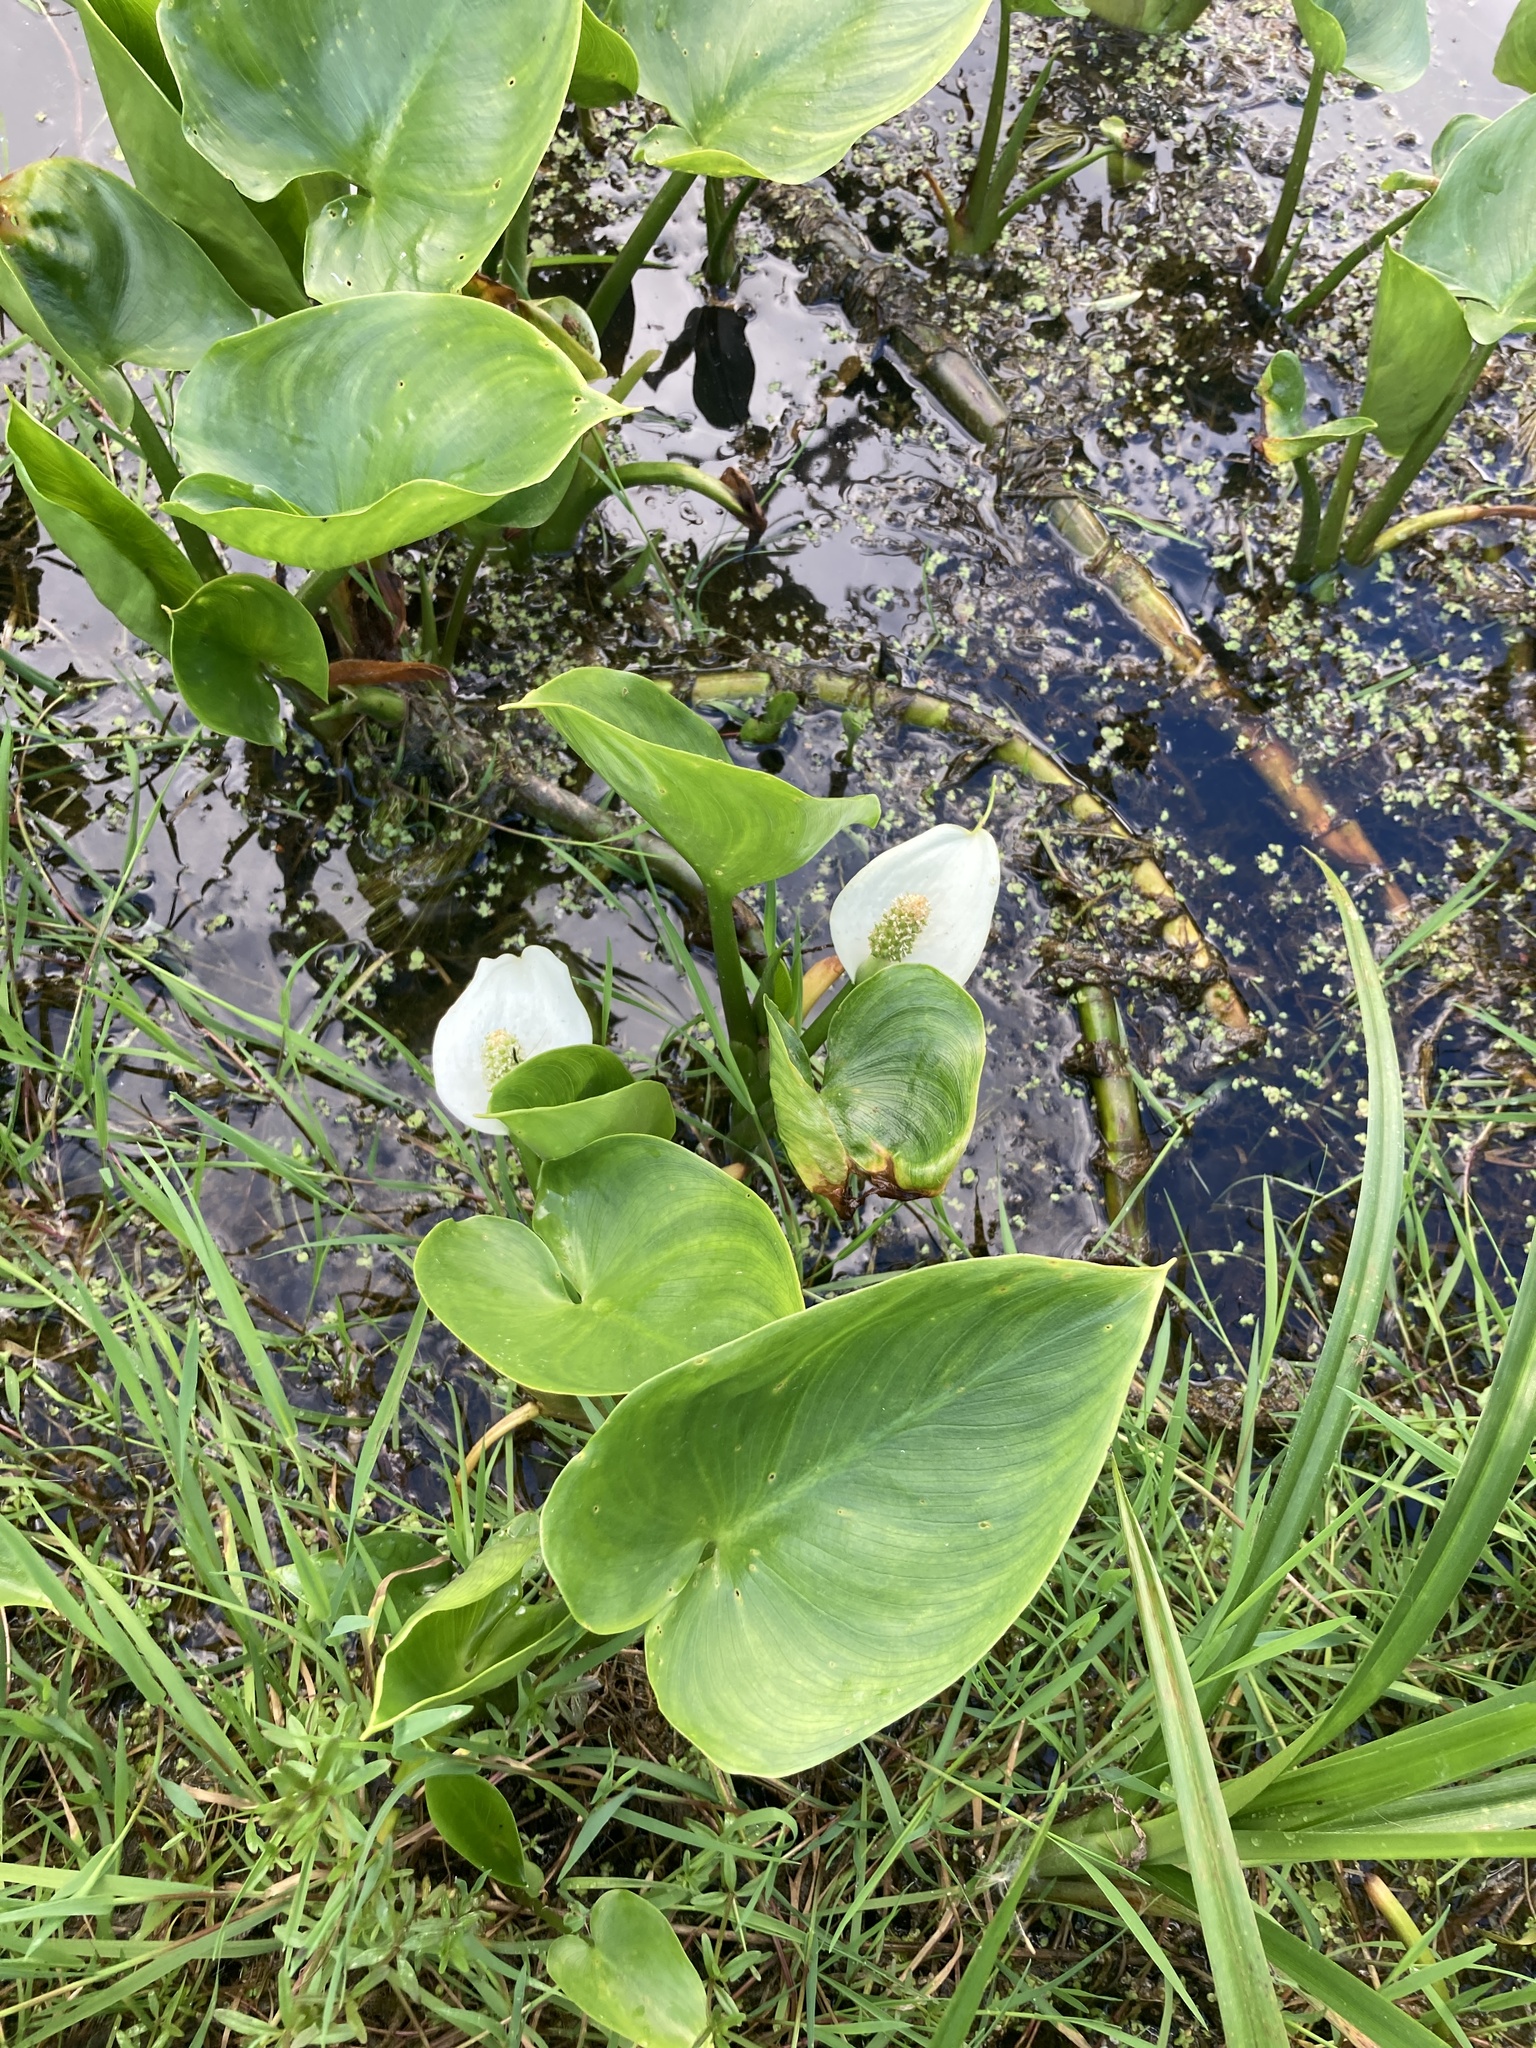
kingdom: Plantae
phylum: Tracheophyta
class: Liliopsida
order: Alismatales
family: Araceae
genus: Calla
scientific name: Calla palustris
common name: Bog arum
